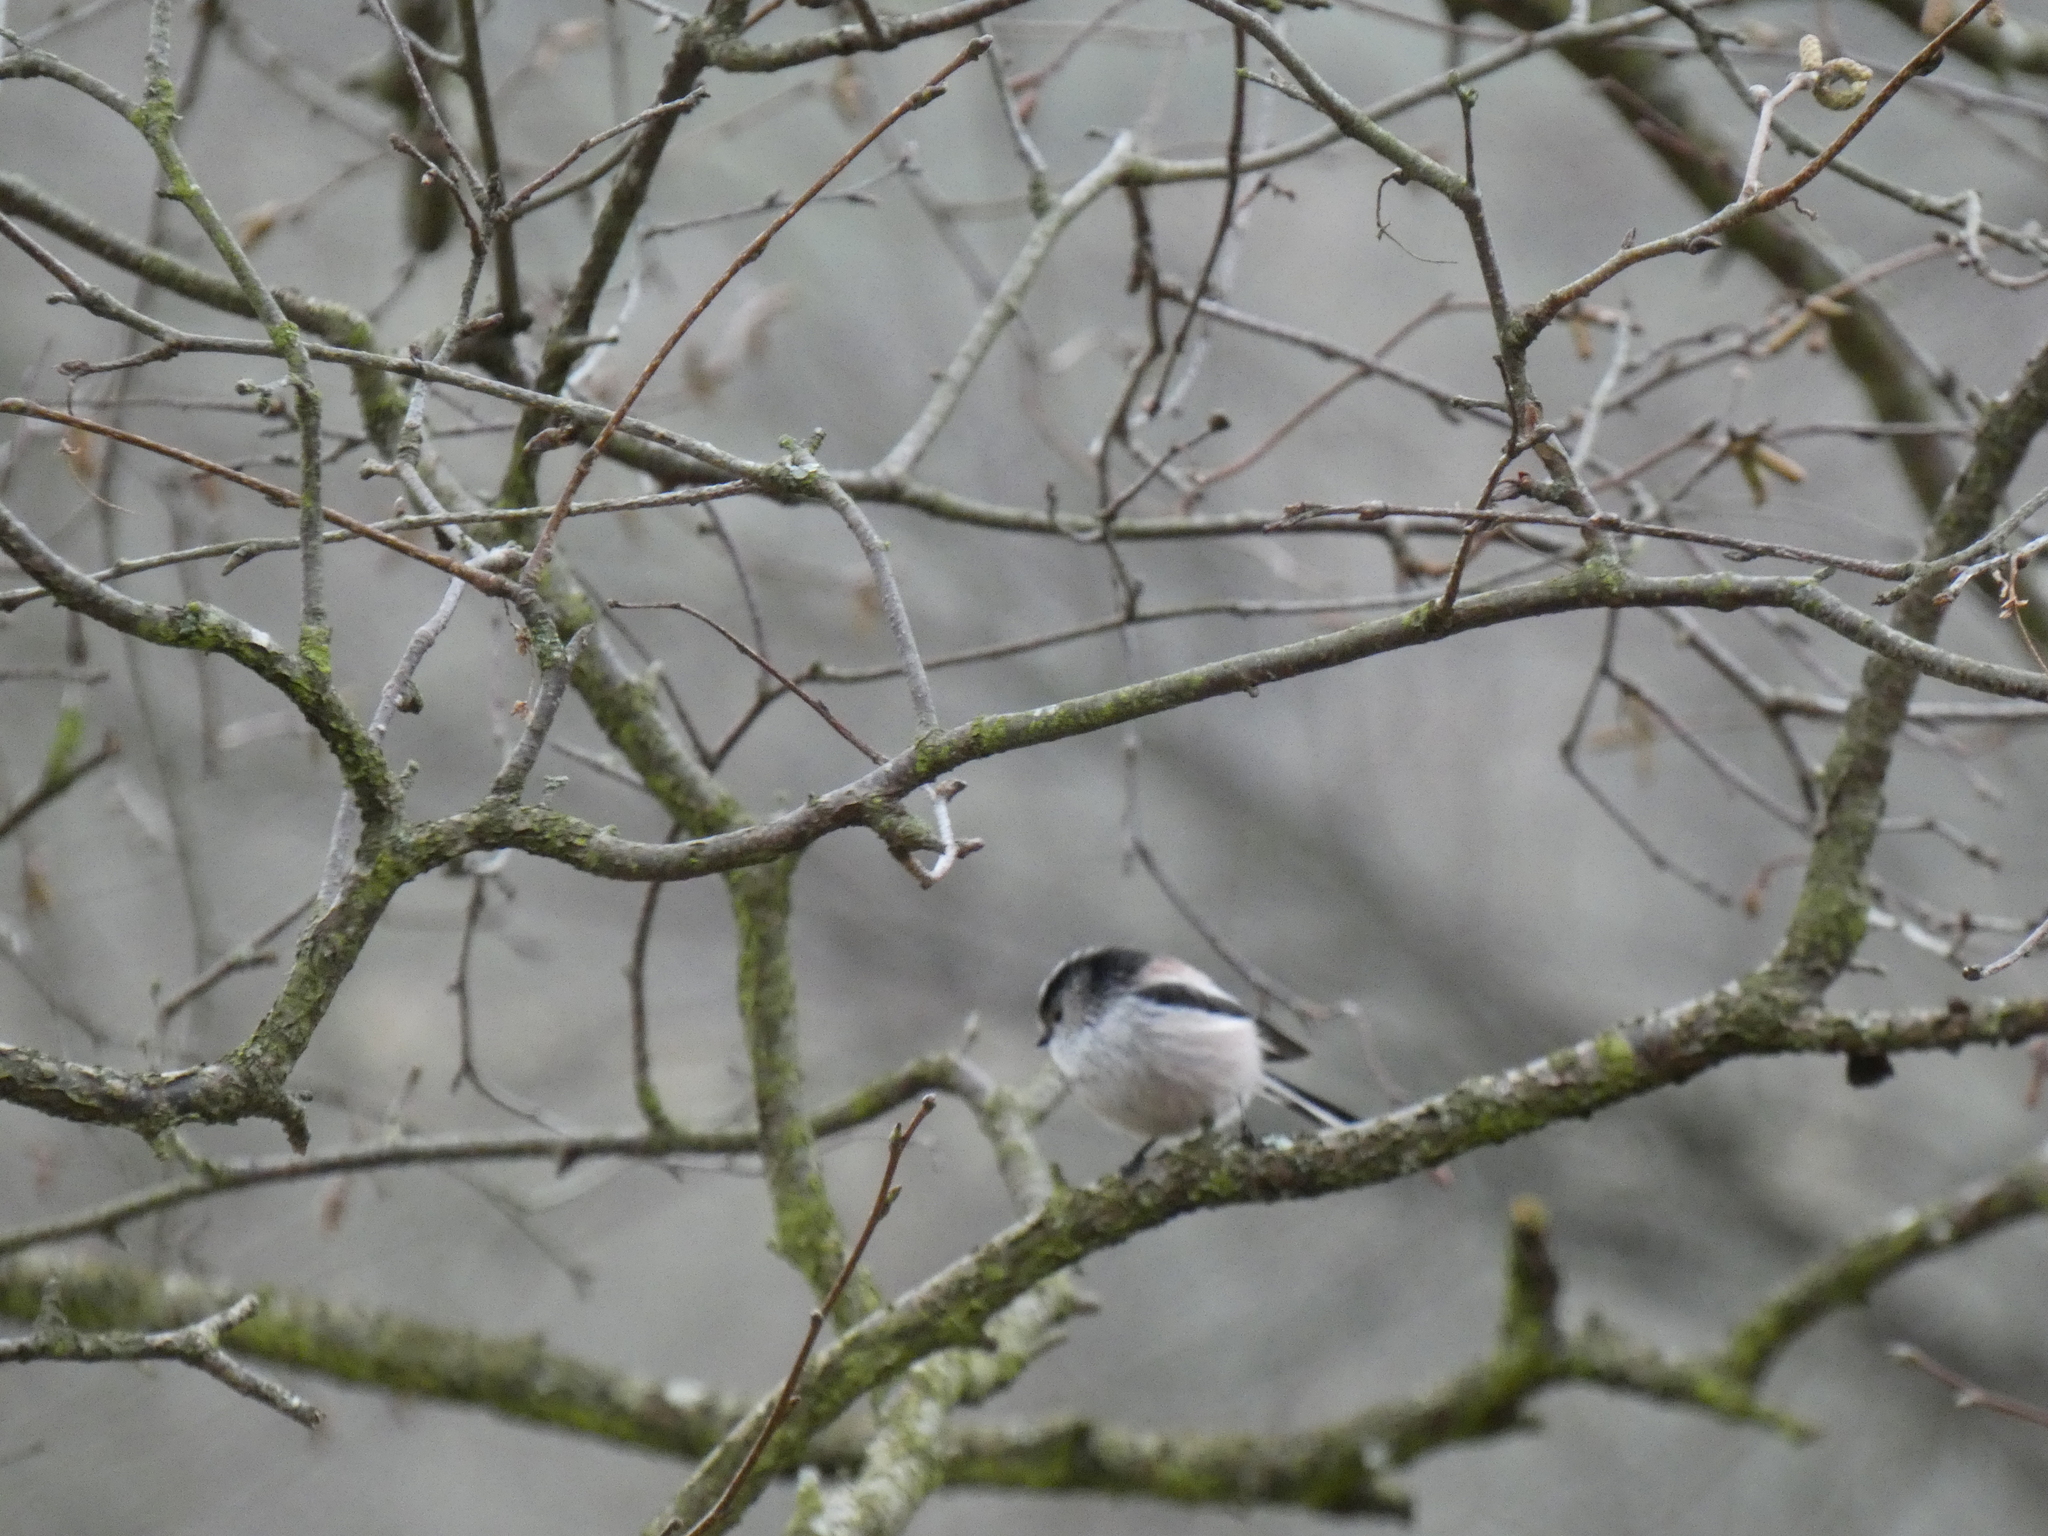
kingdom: Animalia
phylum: Chordata
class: Aves
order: Passeriformes
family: Aegithalidae
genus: Aegithalos
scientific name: Aegithalos caudatus
